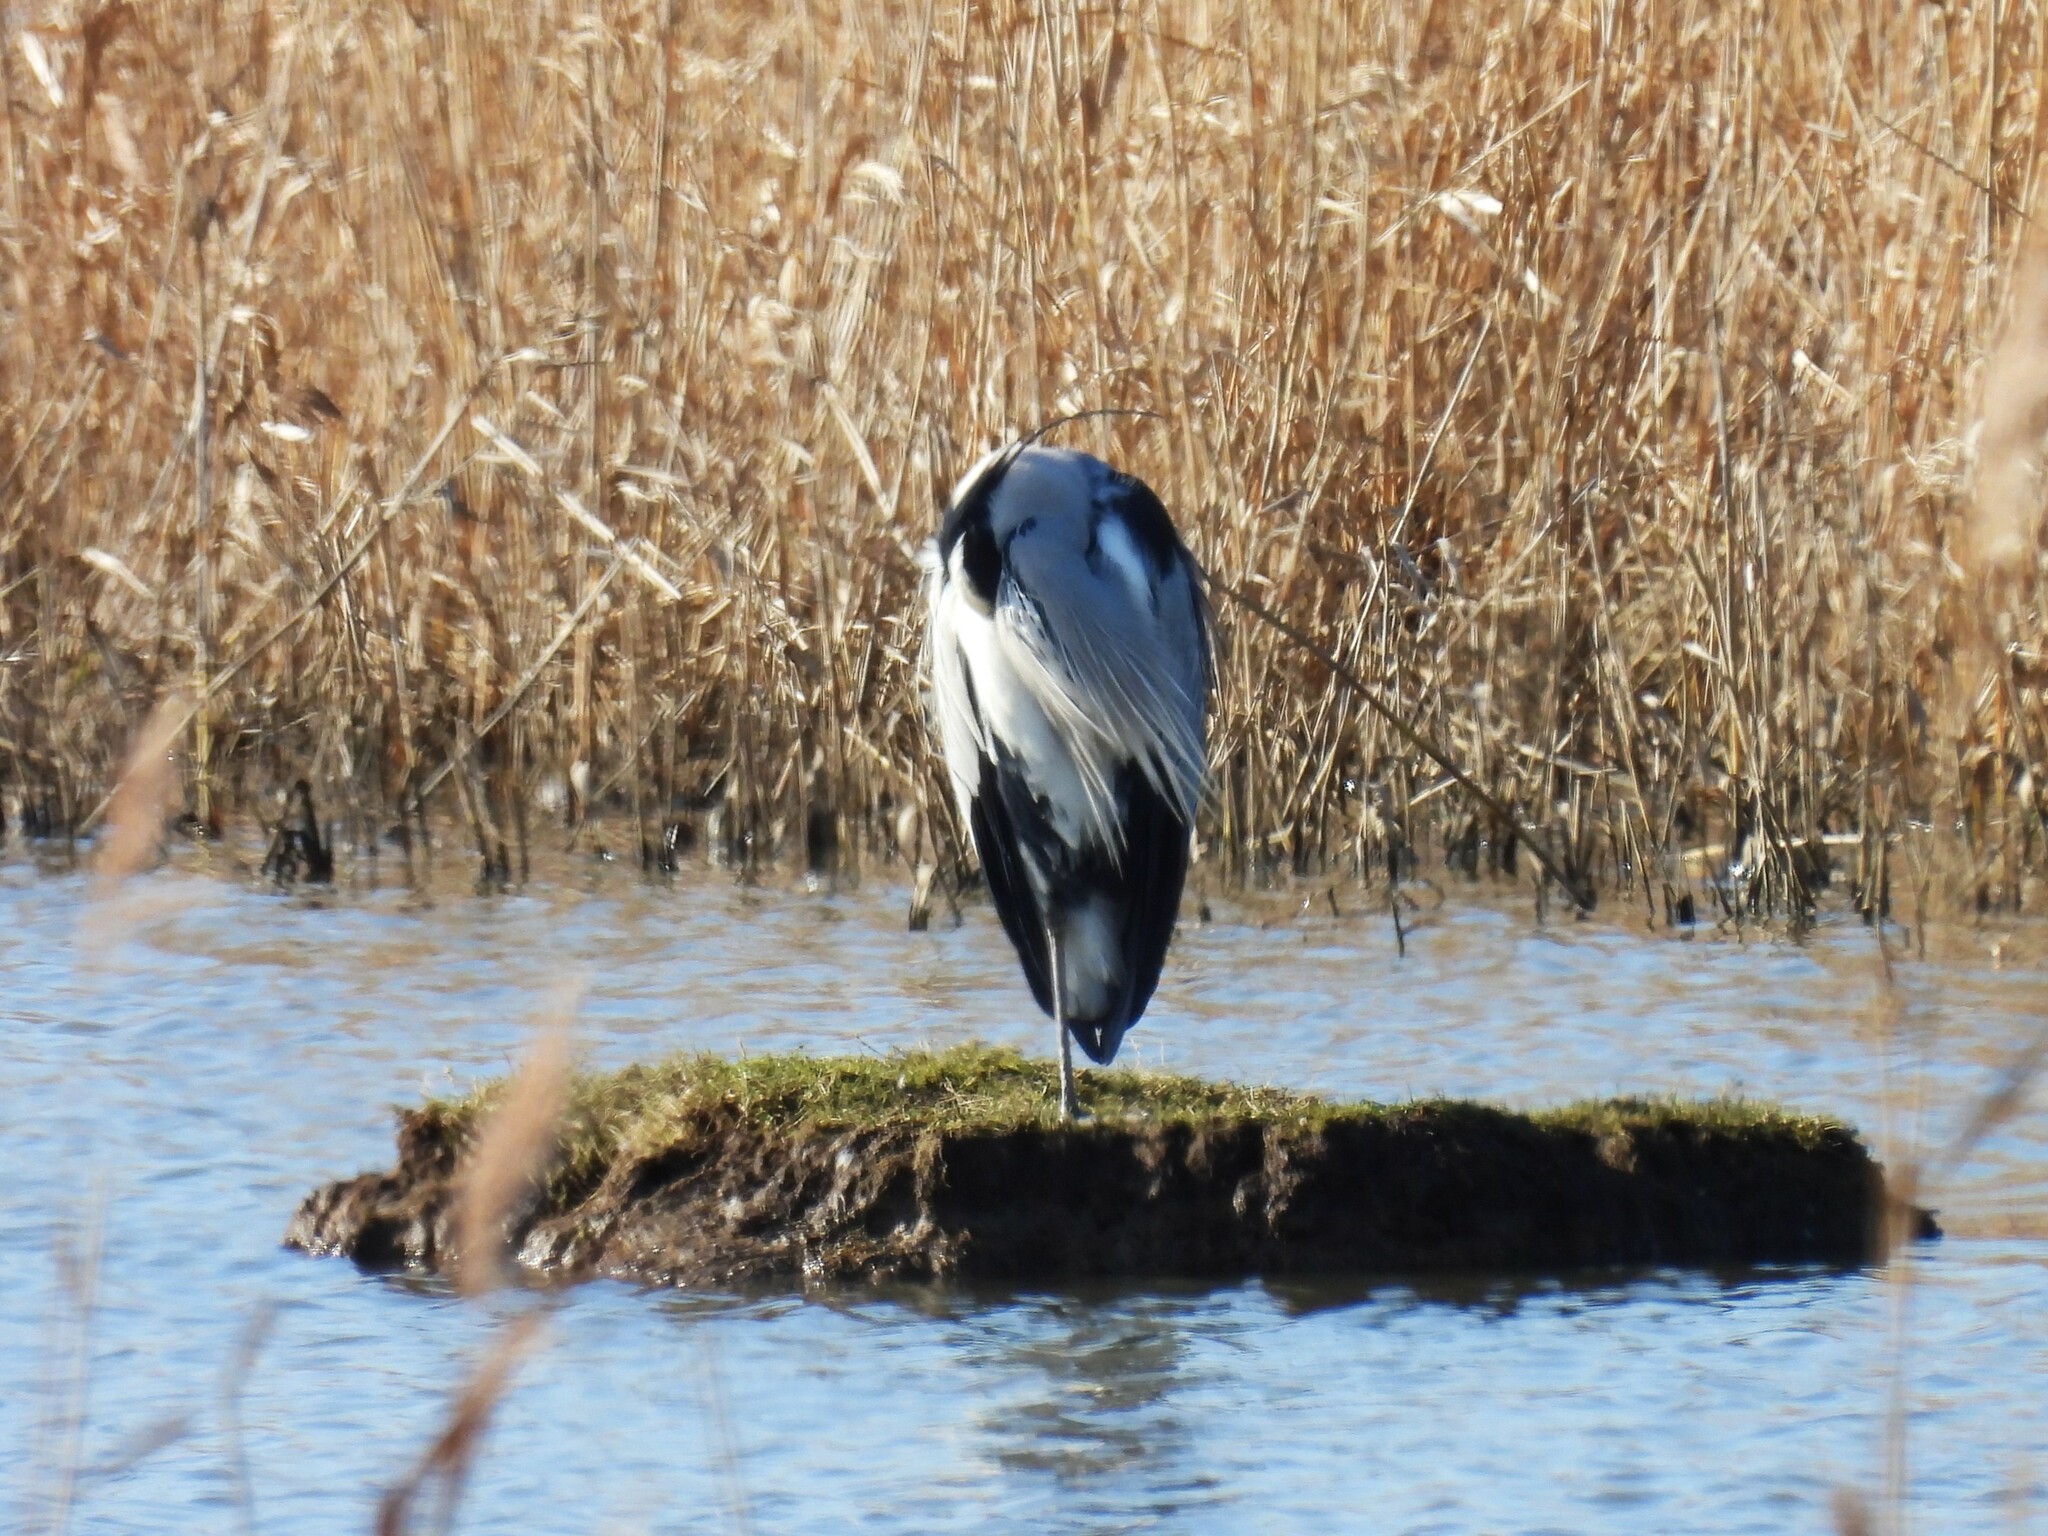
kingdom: Animalia
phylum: Chordata
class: Aves
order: Pelecaniformes
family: Ardeidae
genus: Ardea
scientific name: Ardea cinerea
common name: Grey heron
